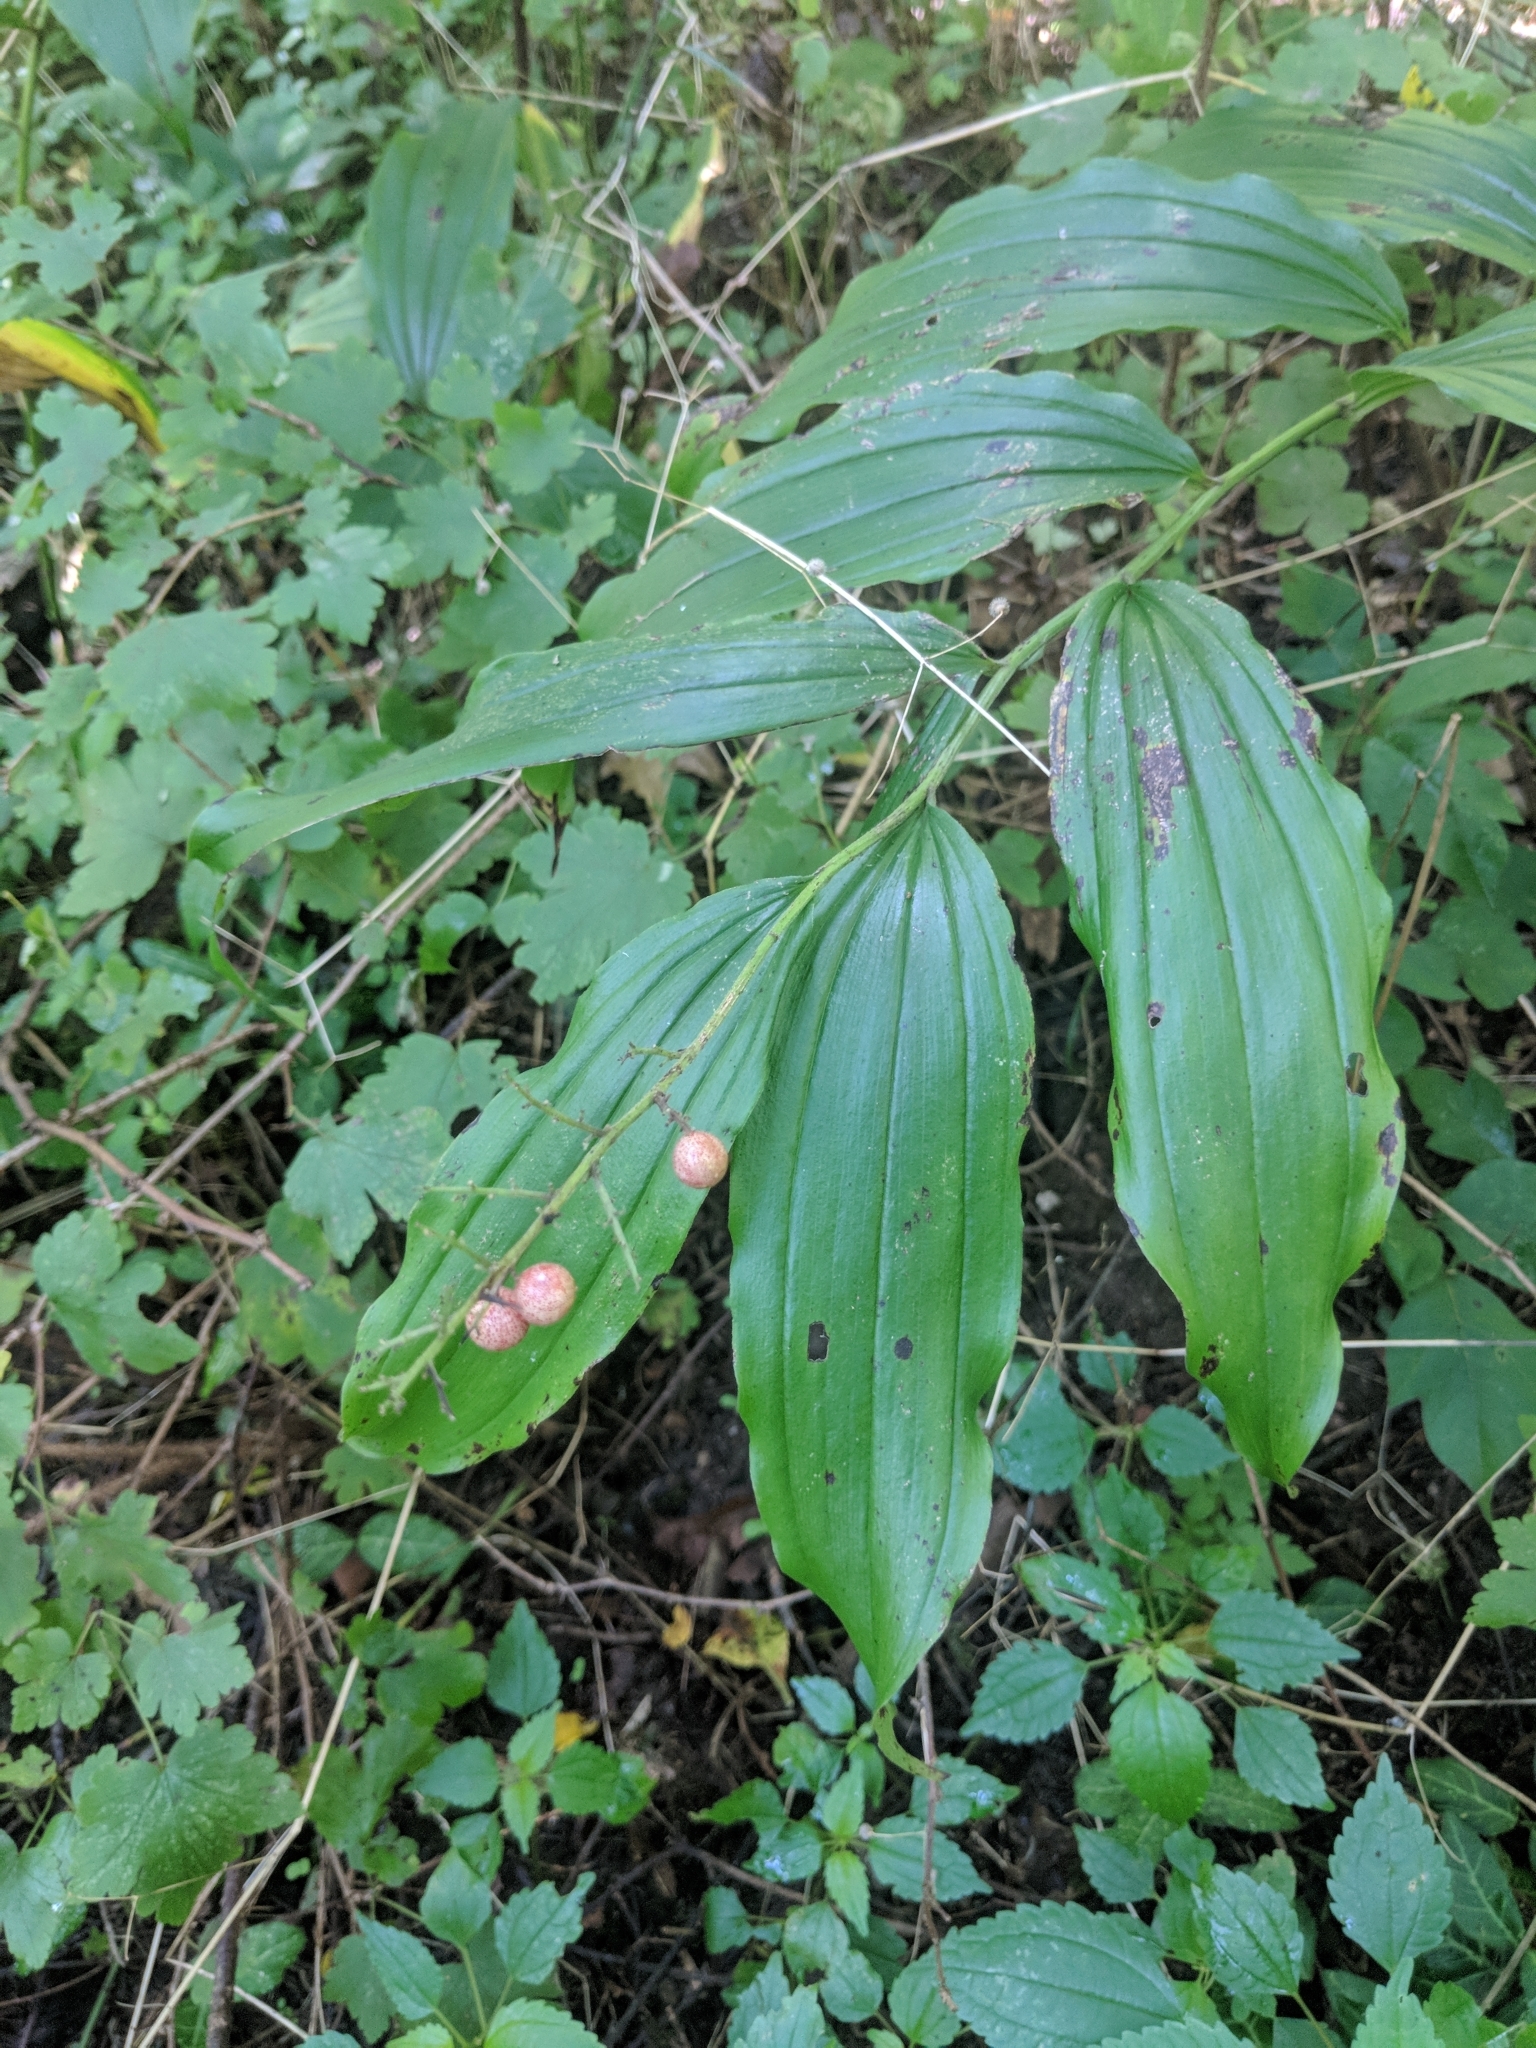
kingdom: Plantae
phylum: Tracheophyta
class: Liliopsida
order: Asparagales
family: Asparagaceae
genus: Maianthemum
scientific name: Maianthemum racemosum
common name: False spikenard
